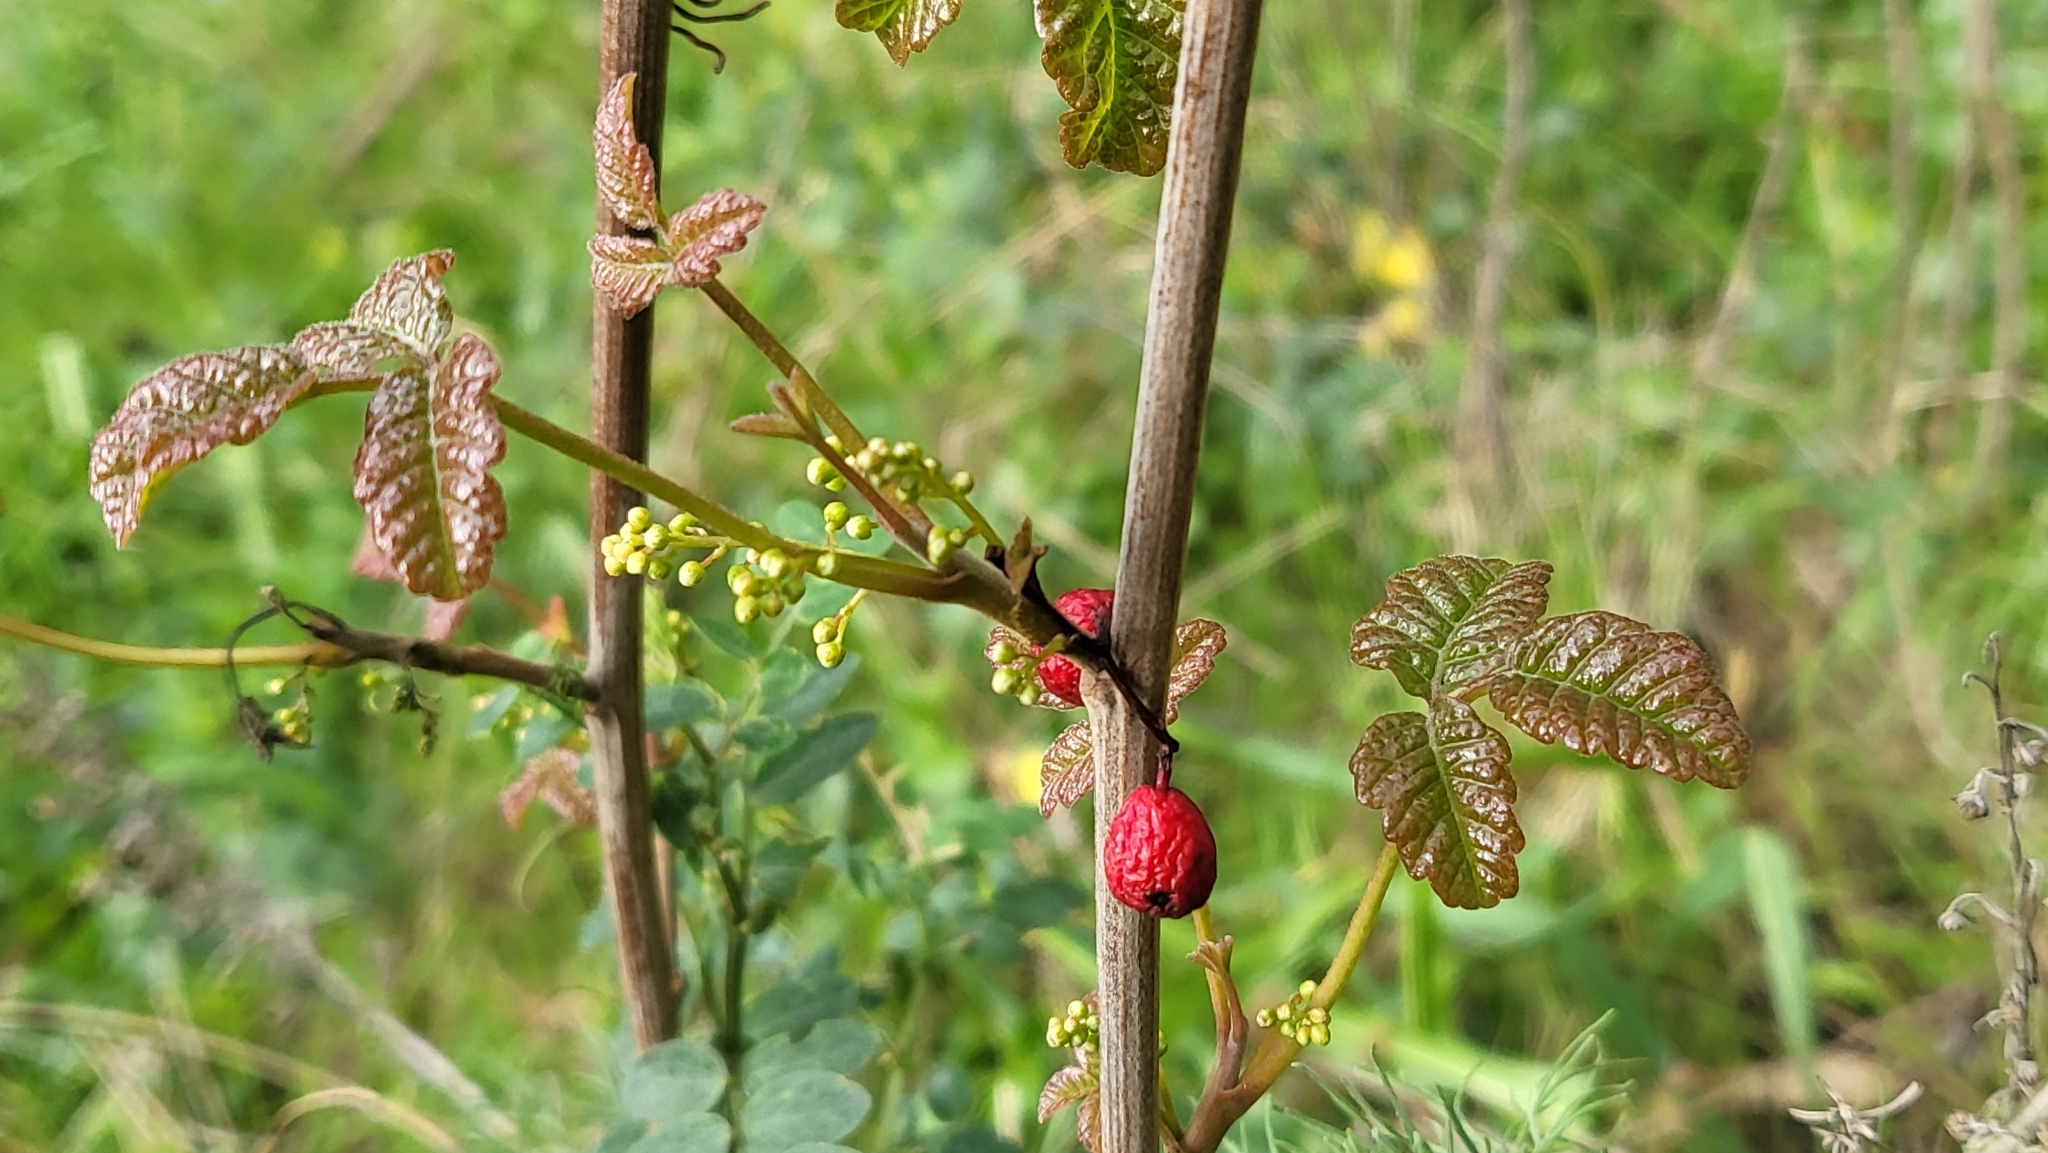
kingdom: Plantae
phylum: Tracheophyta
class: Magnoliopsida
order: Sapindales
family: Anacardiaceae
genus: Toxicodendron
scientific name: Toxicodendron diversilobum
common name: Pacific poison-oak
